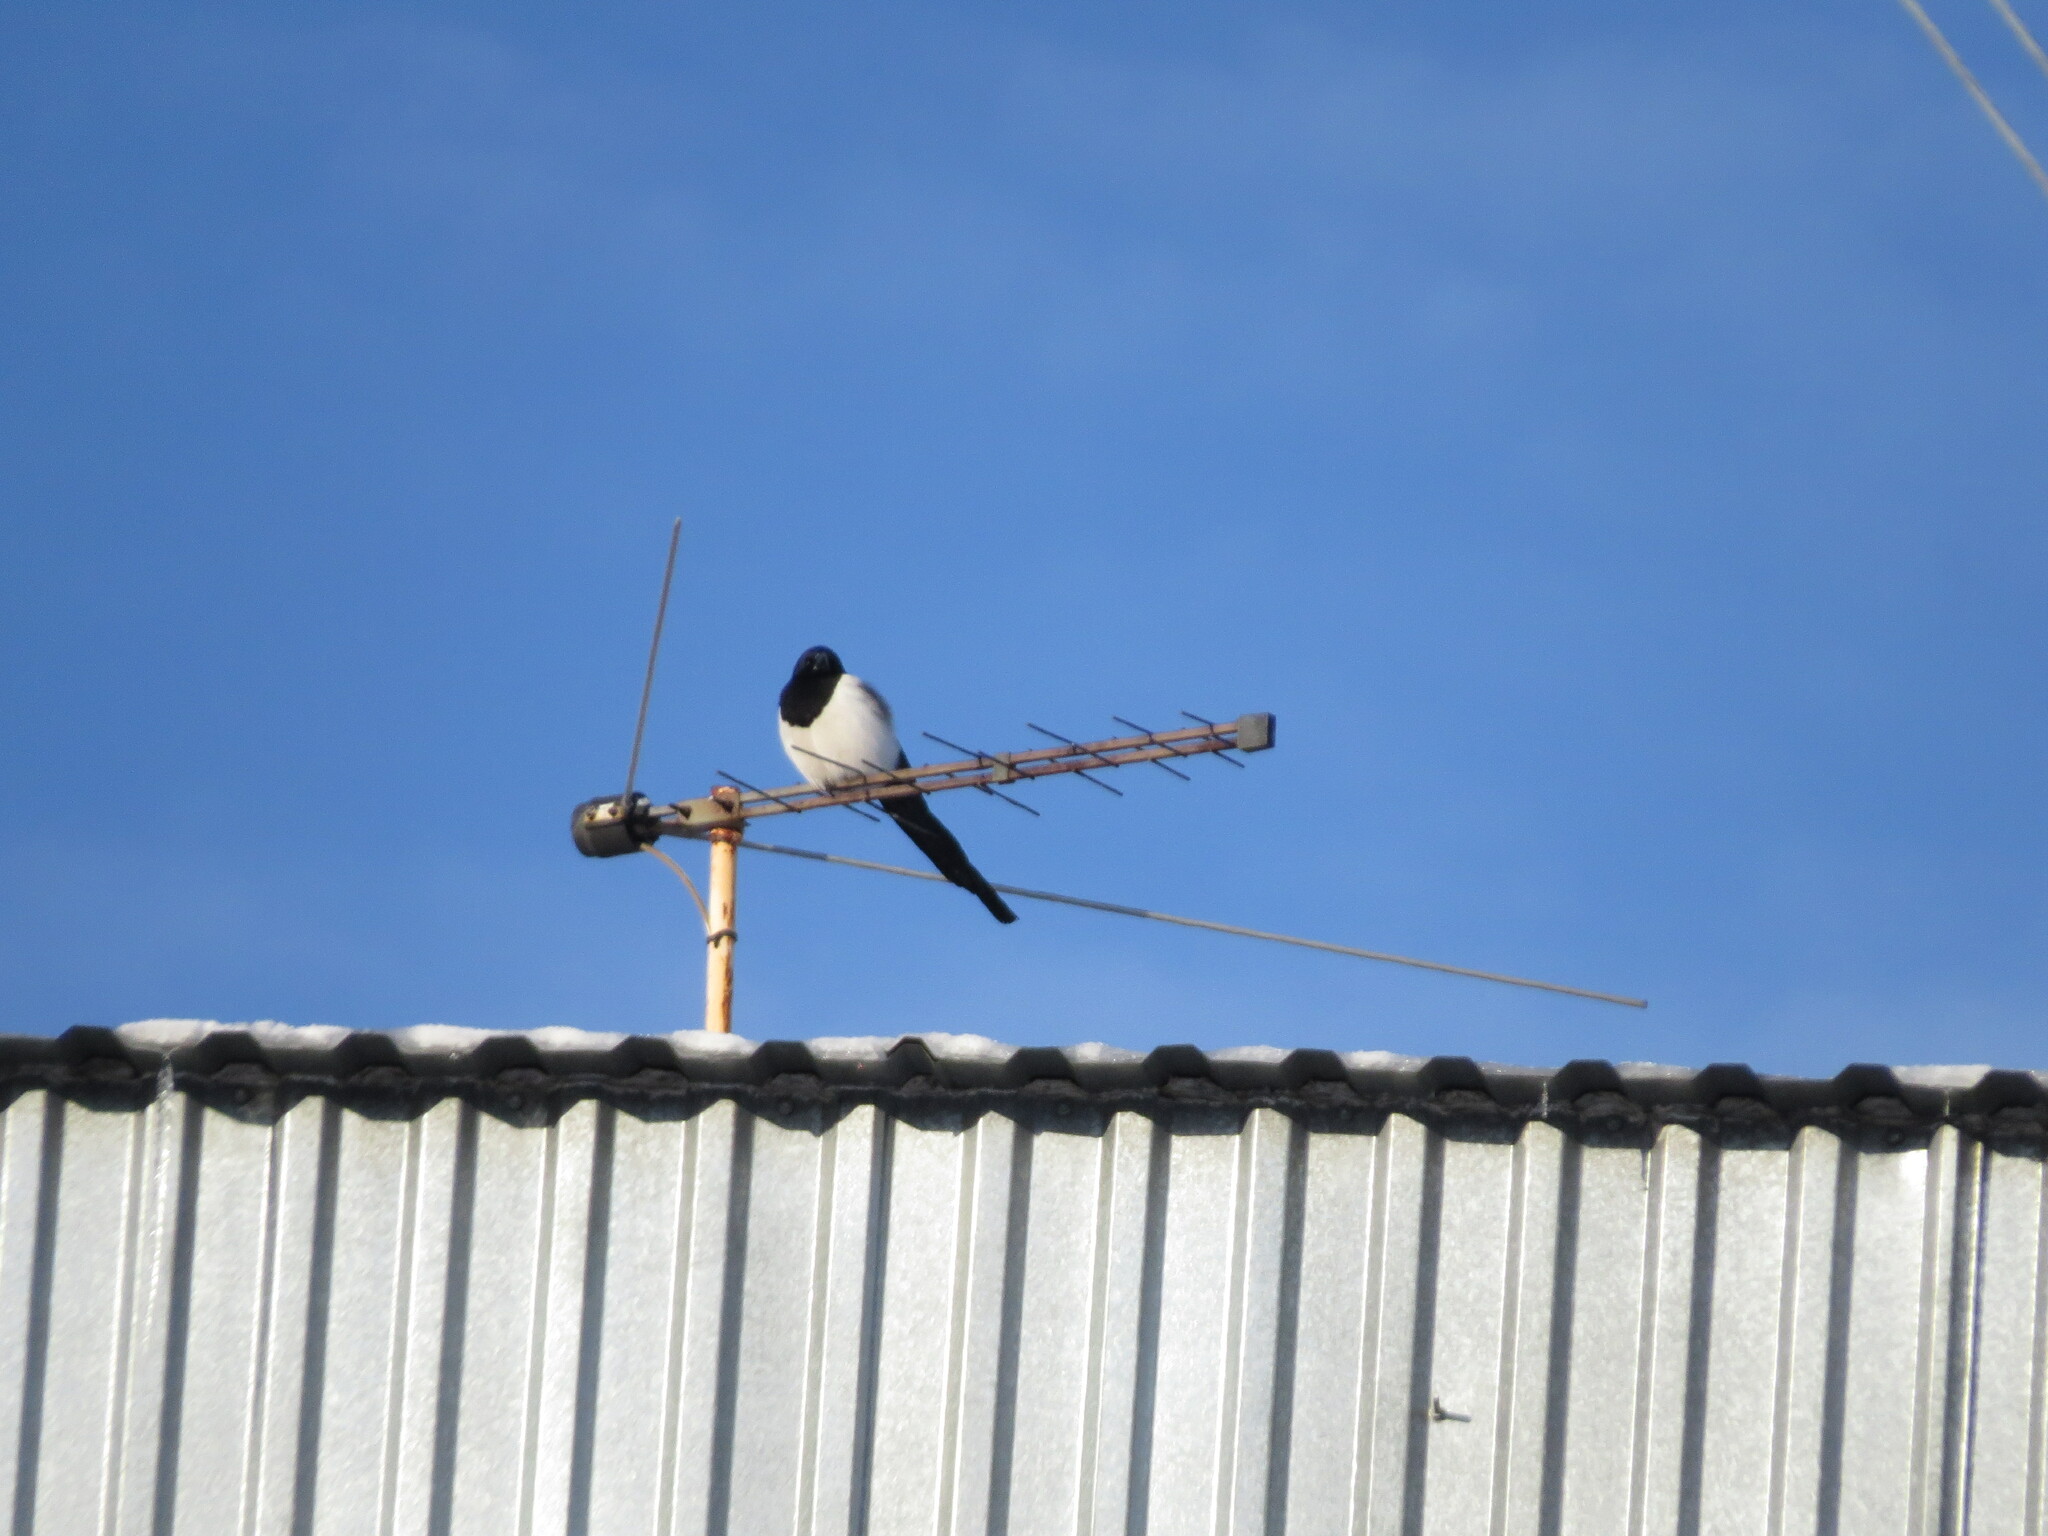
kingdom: Animalia
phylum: Chordata
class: Aves
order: Passeriformes
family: Corvidae
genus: Pica
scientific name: Pica pica
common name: Eurasian magpie
